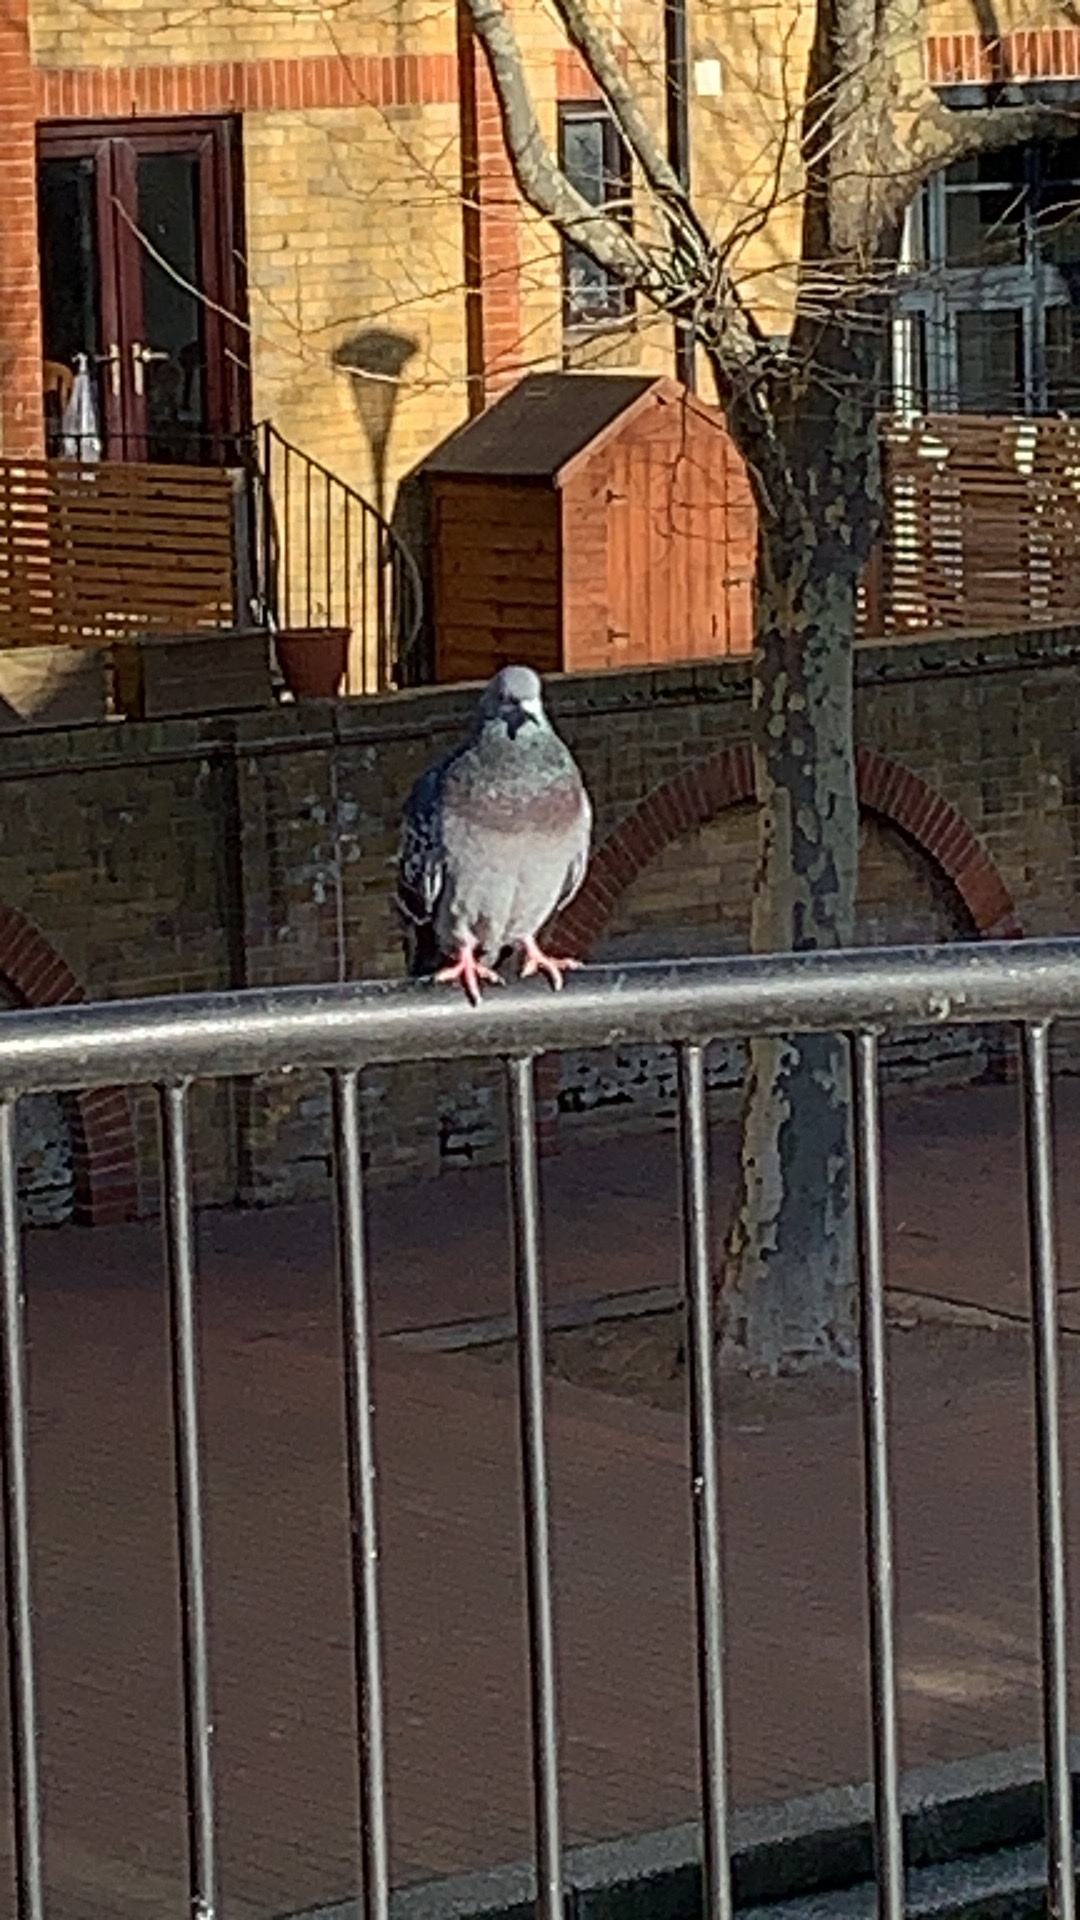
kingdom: Animalia
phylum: Chordata
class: Aves
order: Columbiformes
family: Columbidae
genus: Columba
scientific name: Columba livia
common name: Rock pigeon
